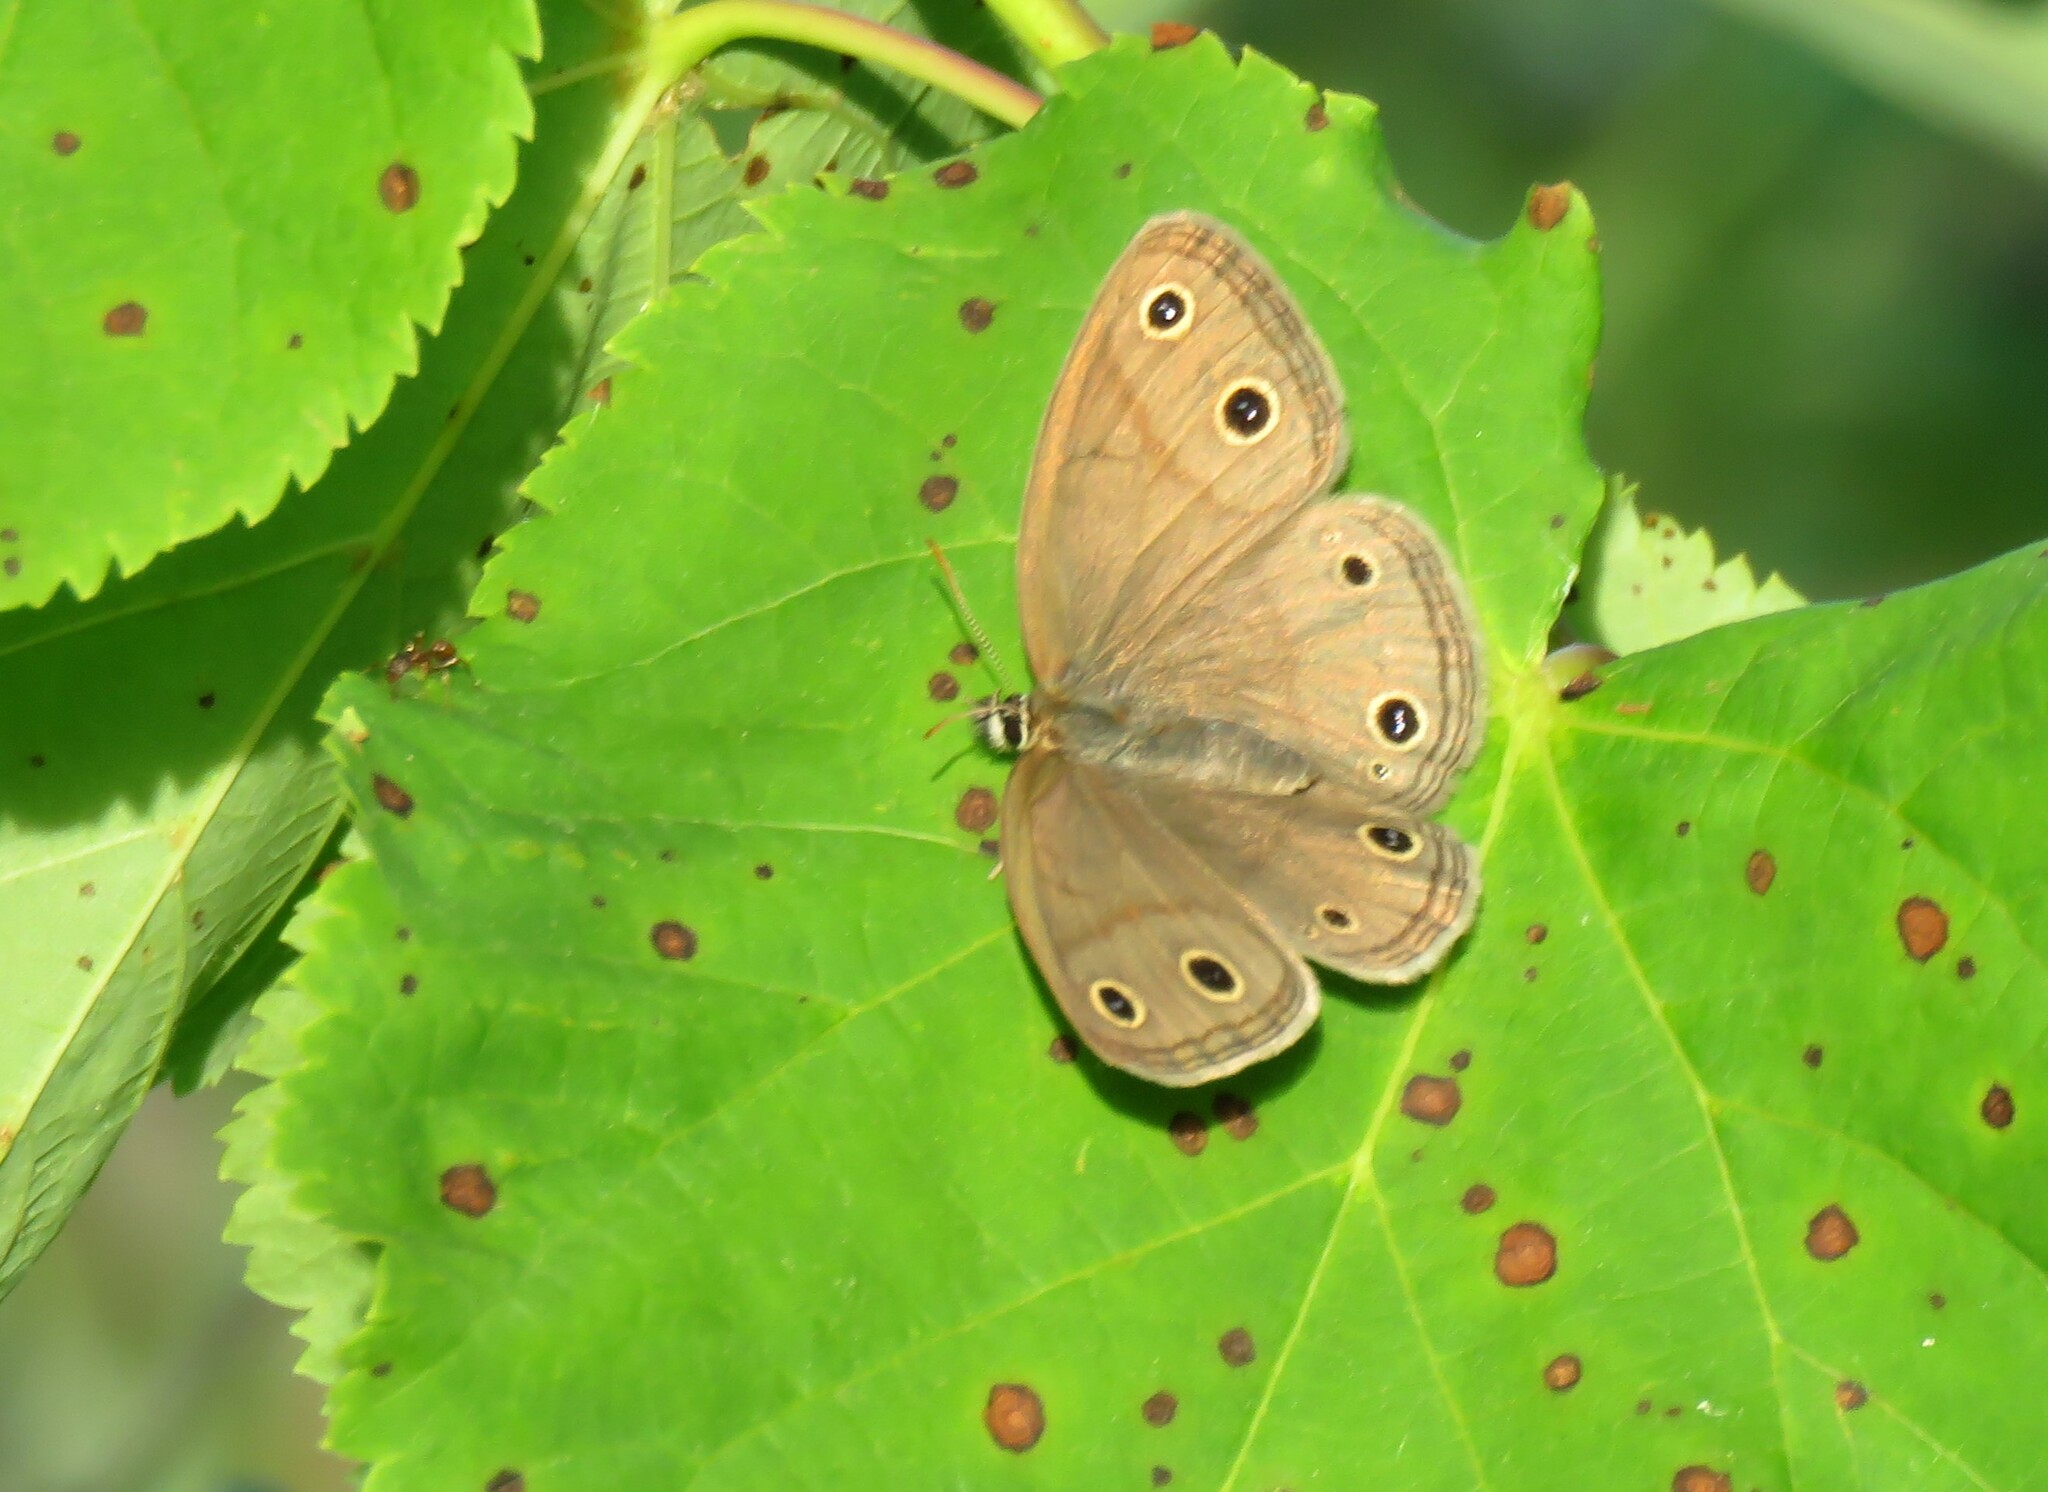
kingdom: Animalia
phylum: Arthropoda
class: Insecta
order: Lepidoptera
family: Nymphalidae
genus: Euptychia
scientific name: Euptychia cymela
